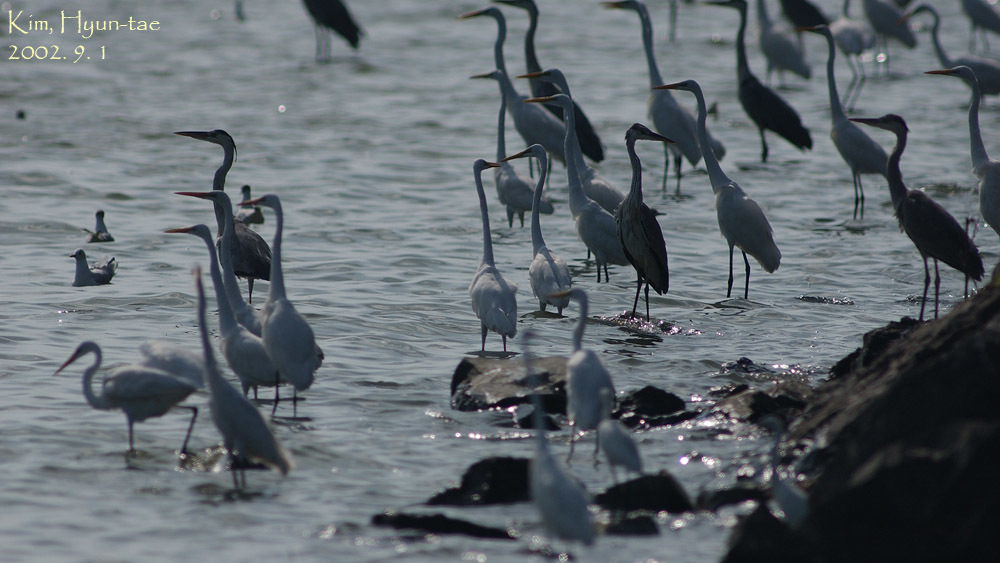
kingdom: Animalia
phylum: Chordata
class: Aves
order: Pelecaniformes
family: Ardeidae
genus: Ardea
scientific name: Ardea alba
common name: Great egret
